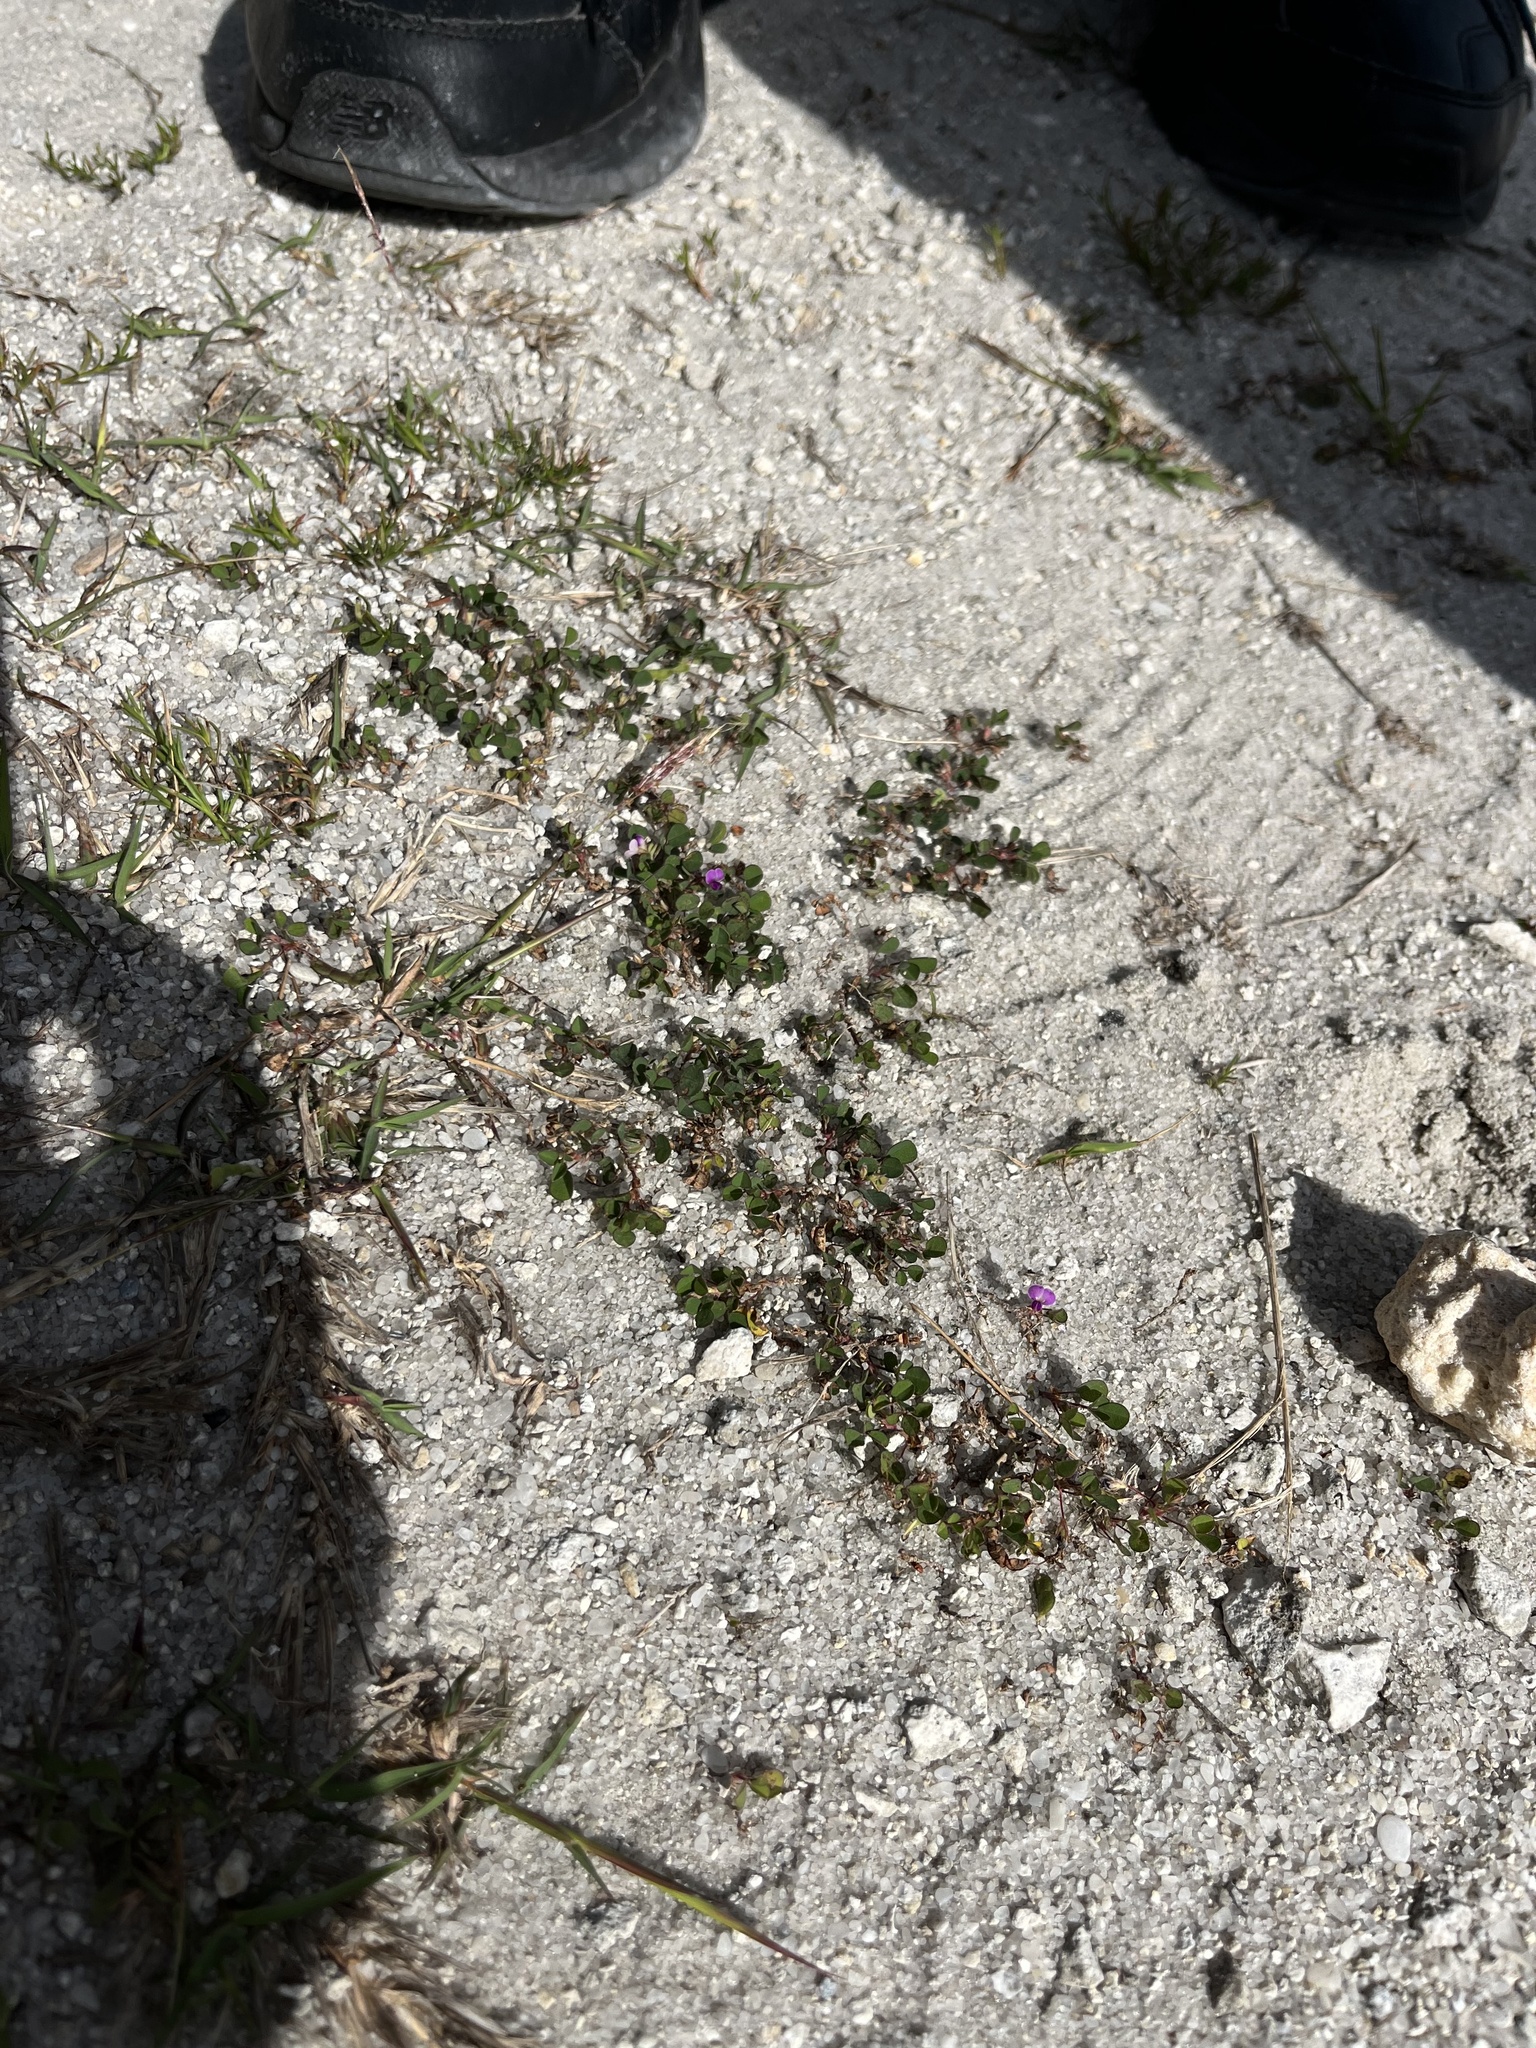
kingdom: Plantae
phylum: Tracheophyta
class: Magnoliopsida
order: Fabales
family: Fabaceae
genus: Grona
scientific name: Grona triflora
